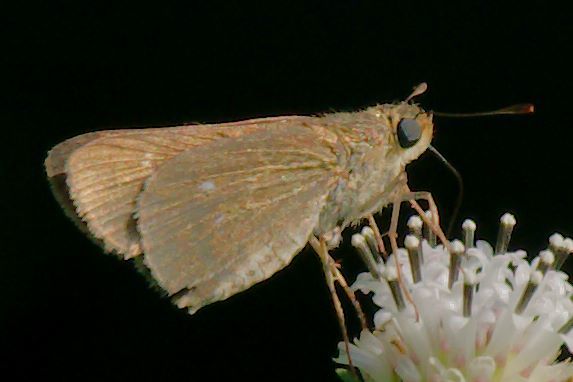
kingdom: Animalia
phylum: Arthropoda
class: Insecta
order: Lepidoptera
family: Hesperiidae
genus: Panoquina
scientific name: Panoquina ocola
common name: Ocola skipper
